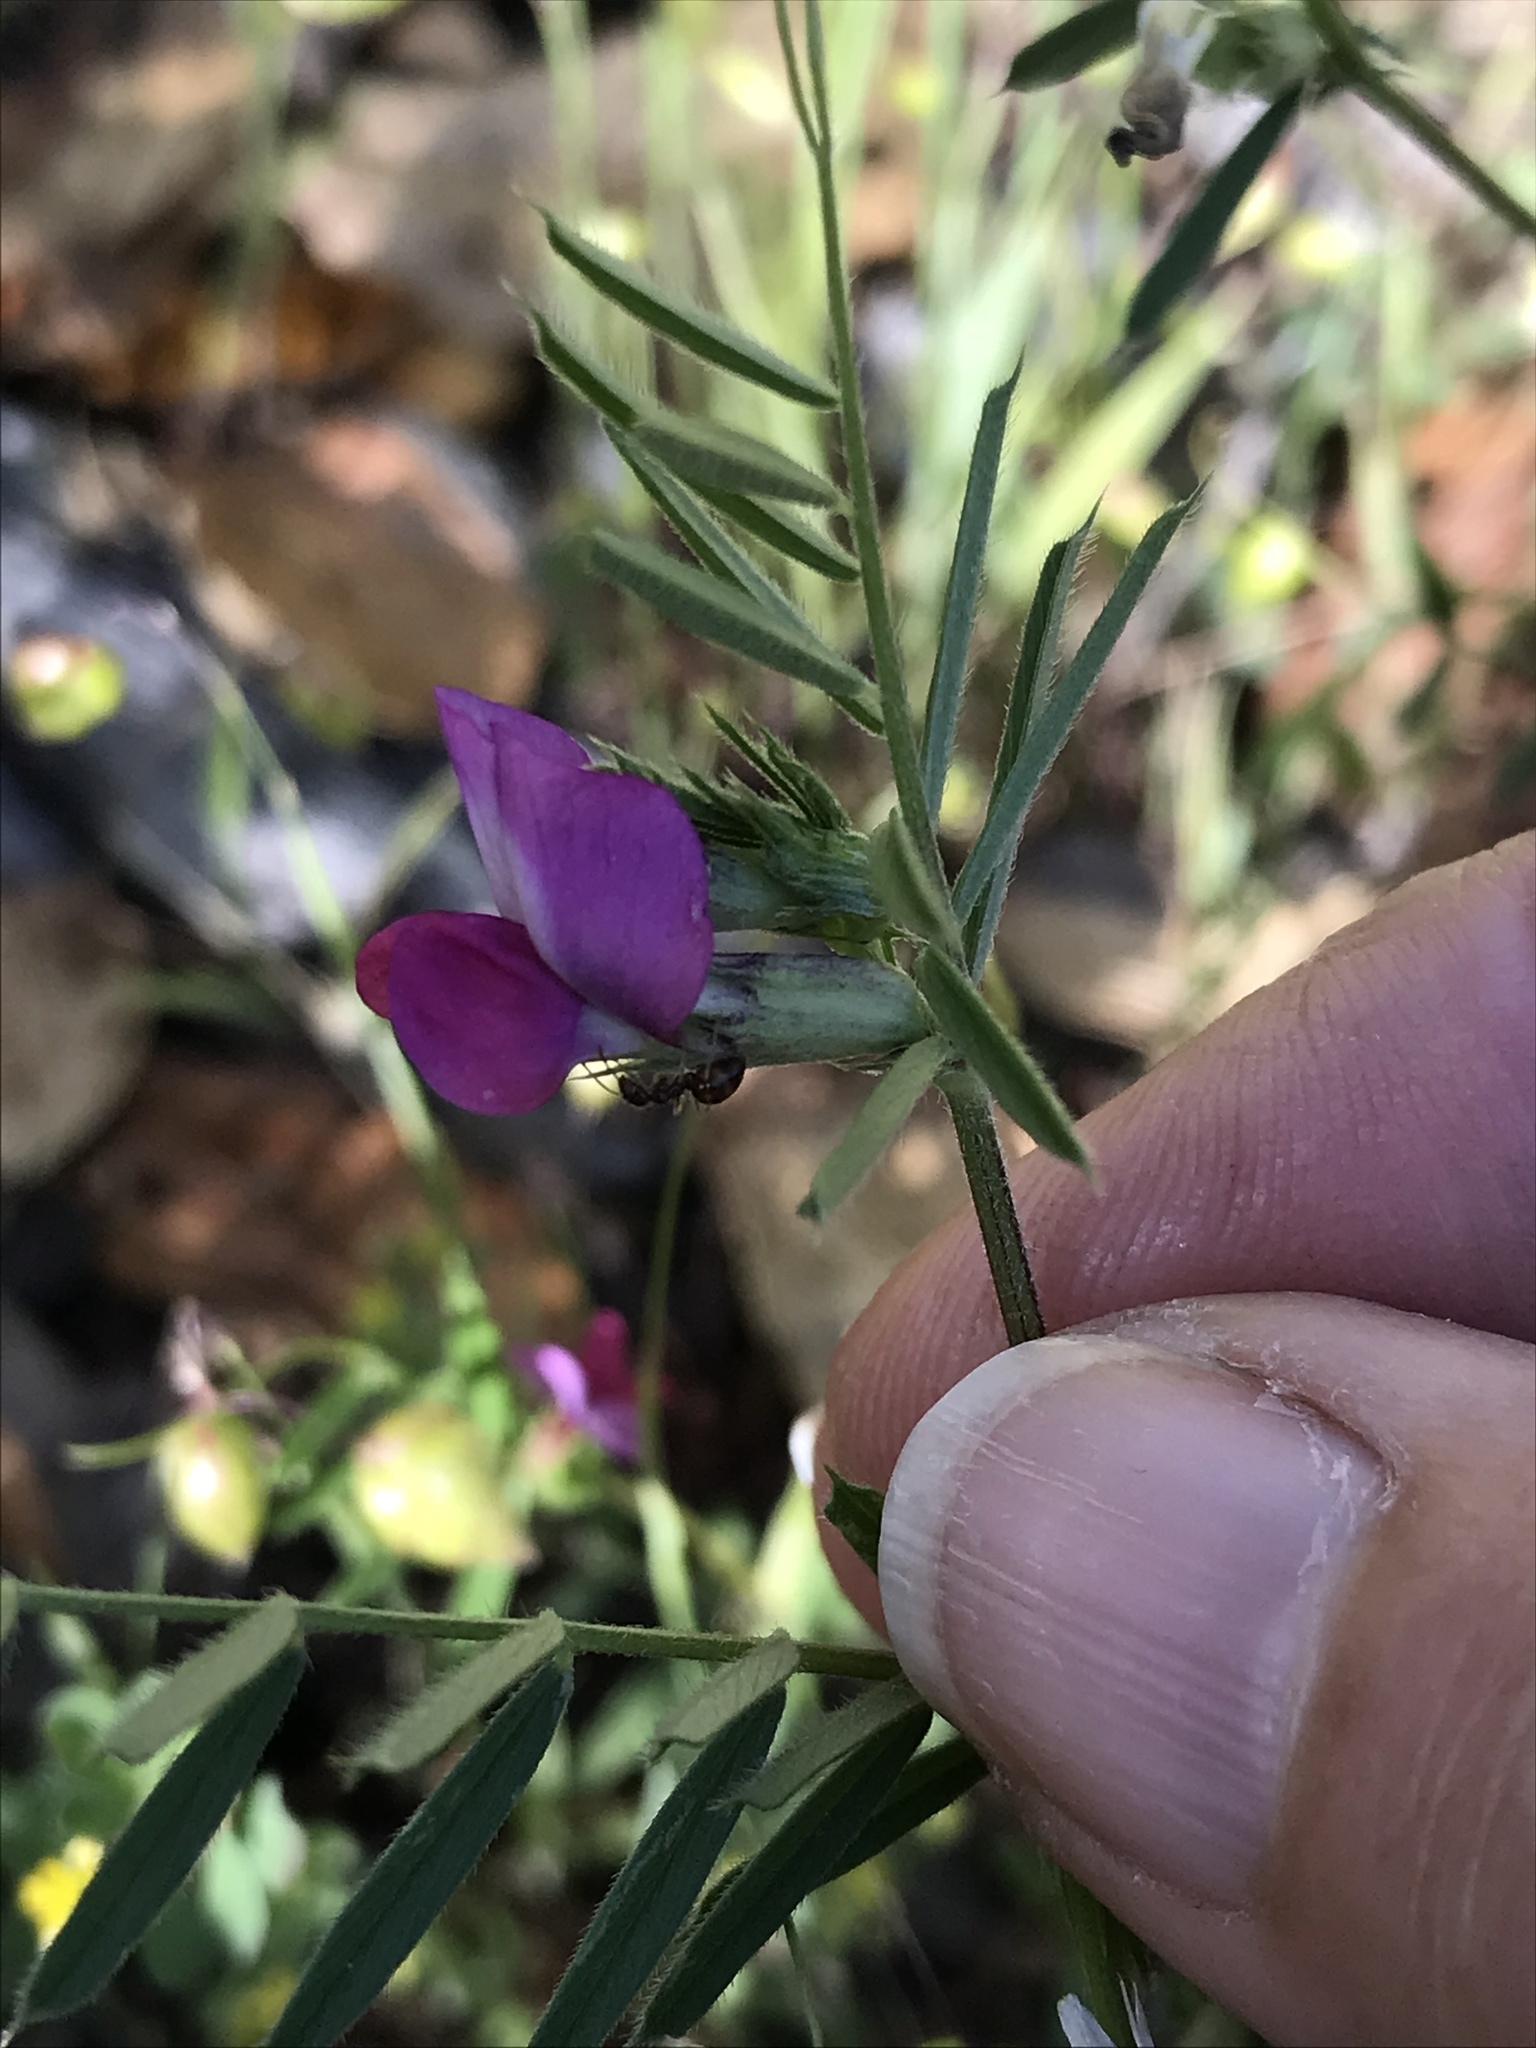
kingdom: Plantae
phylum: Tracheophyta
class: Magnoliopsida
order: Fabales
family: Fabaceae
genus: Vicia
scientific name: Vicia sativa
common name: Garden vetch
